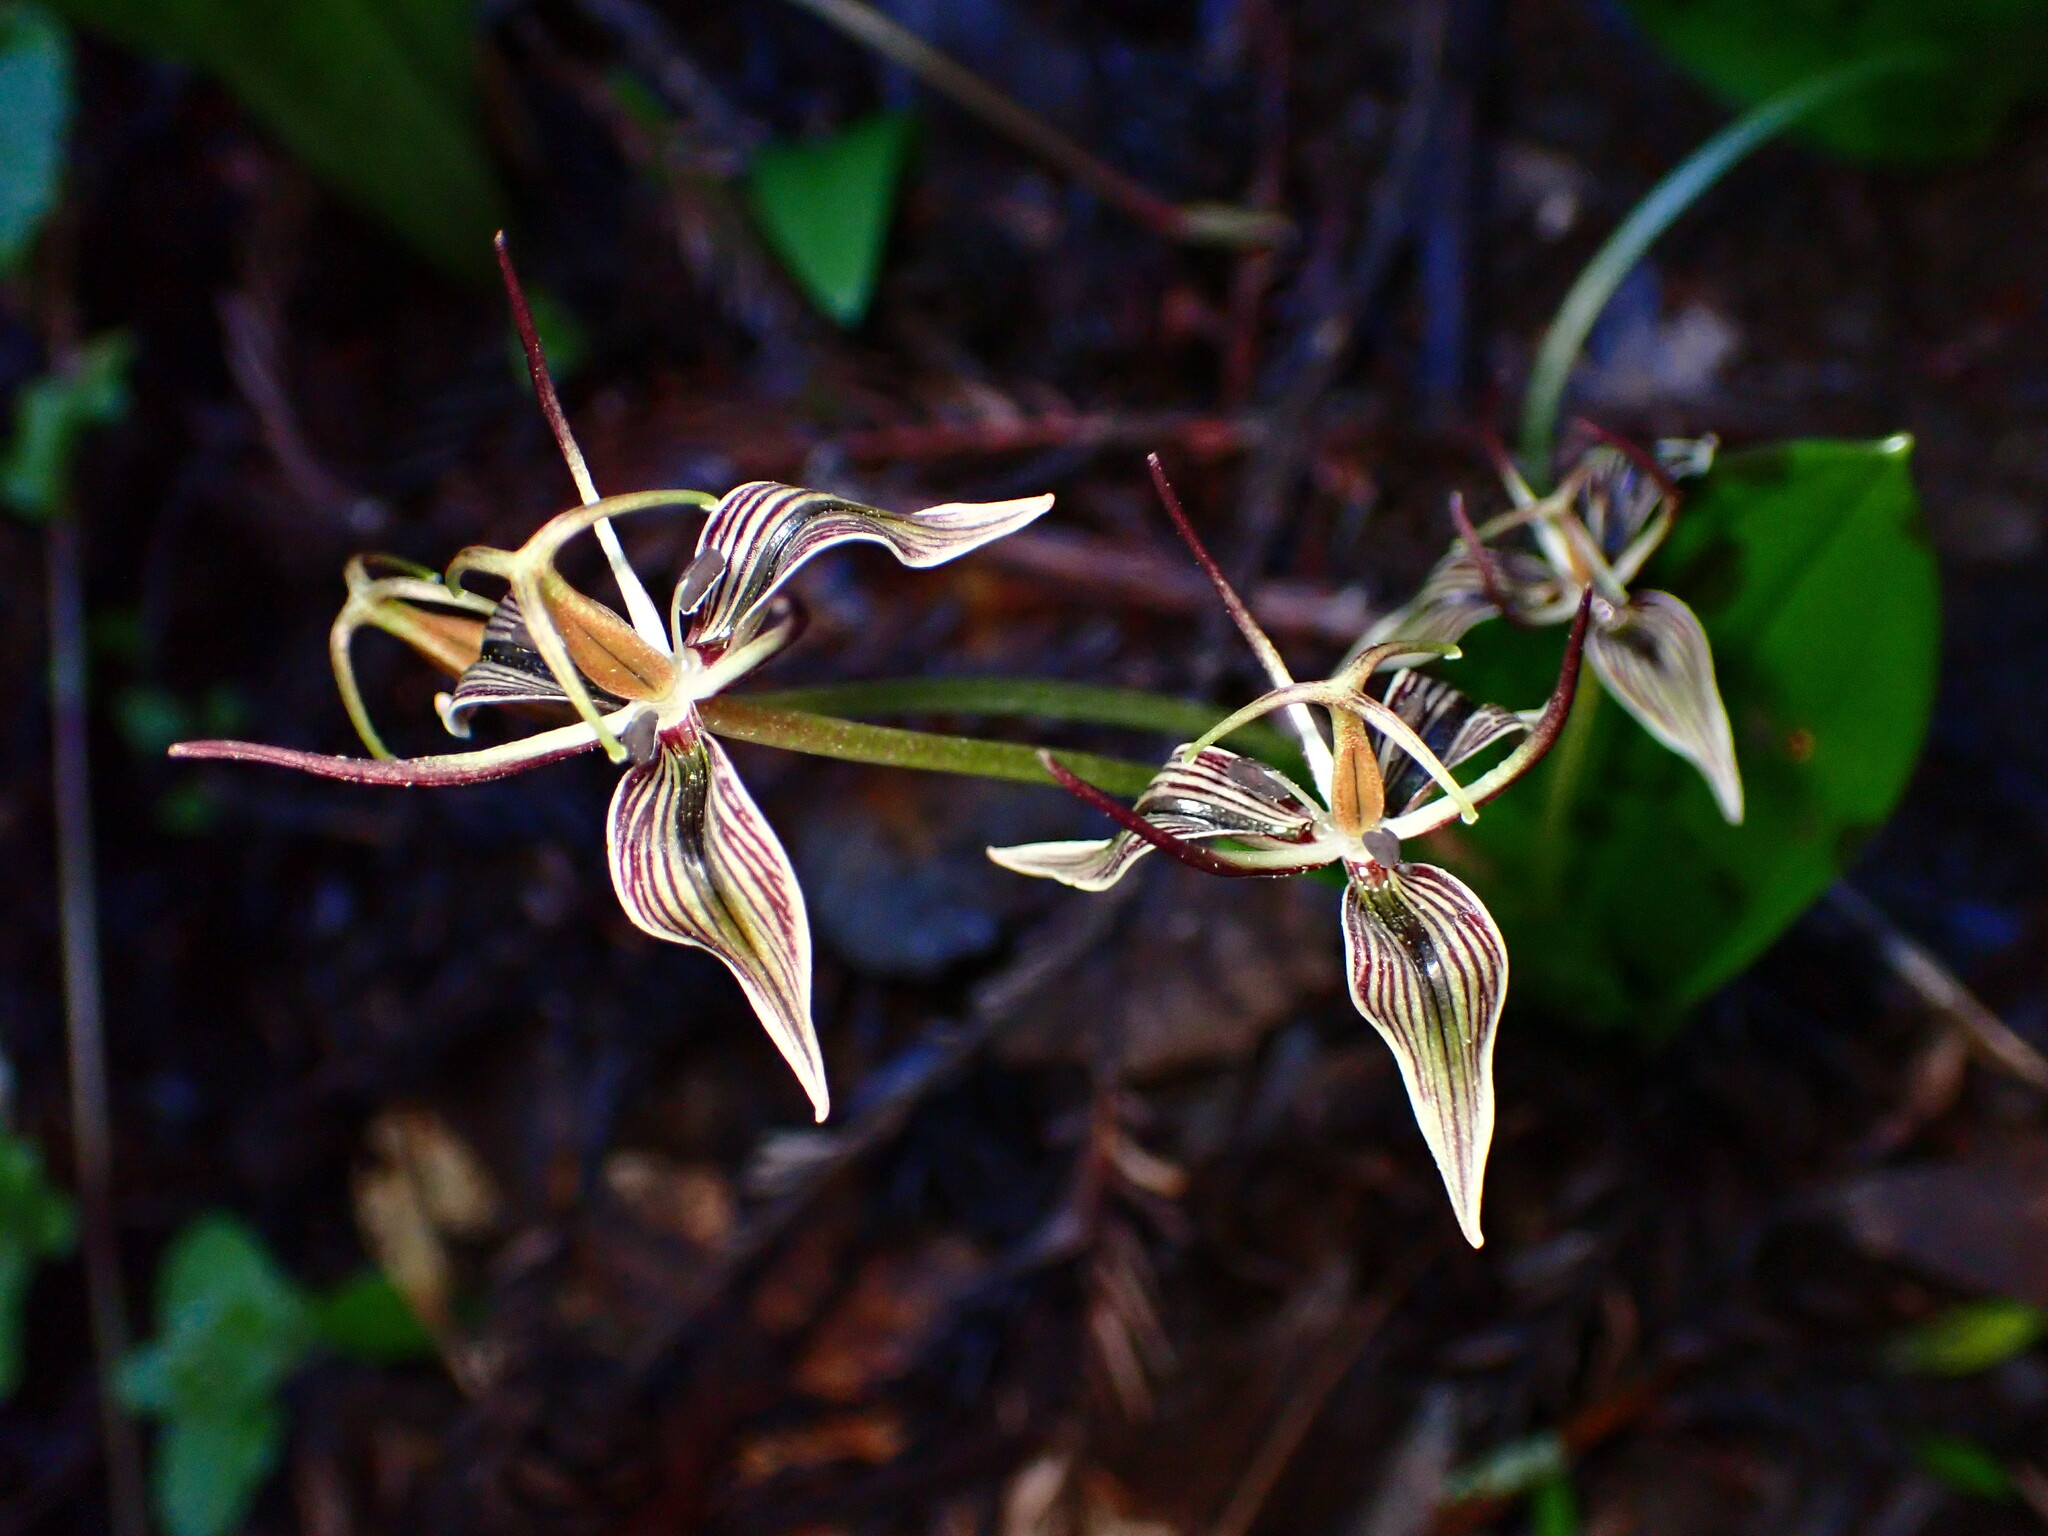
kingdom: Plantae
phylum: Tracheophyta
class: Liliopsida
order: Liliales
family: Liliaceae
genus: Scoliopus
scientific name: Scoliopus bigelovii
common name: Foetid adder's-tongue
